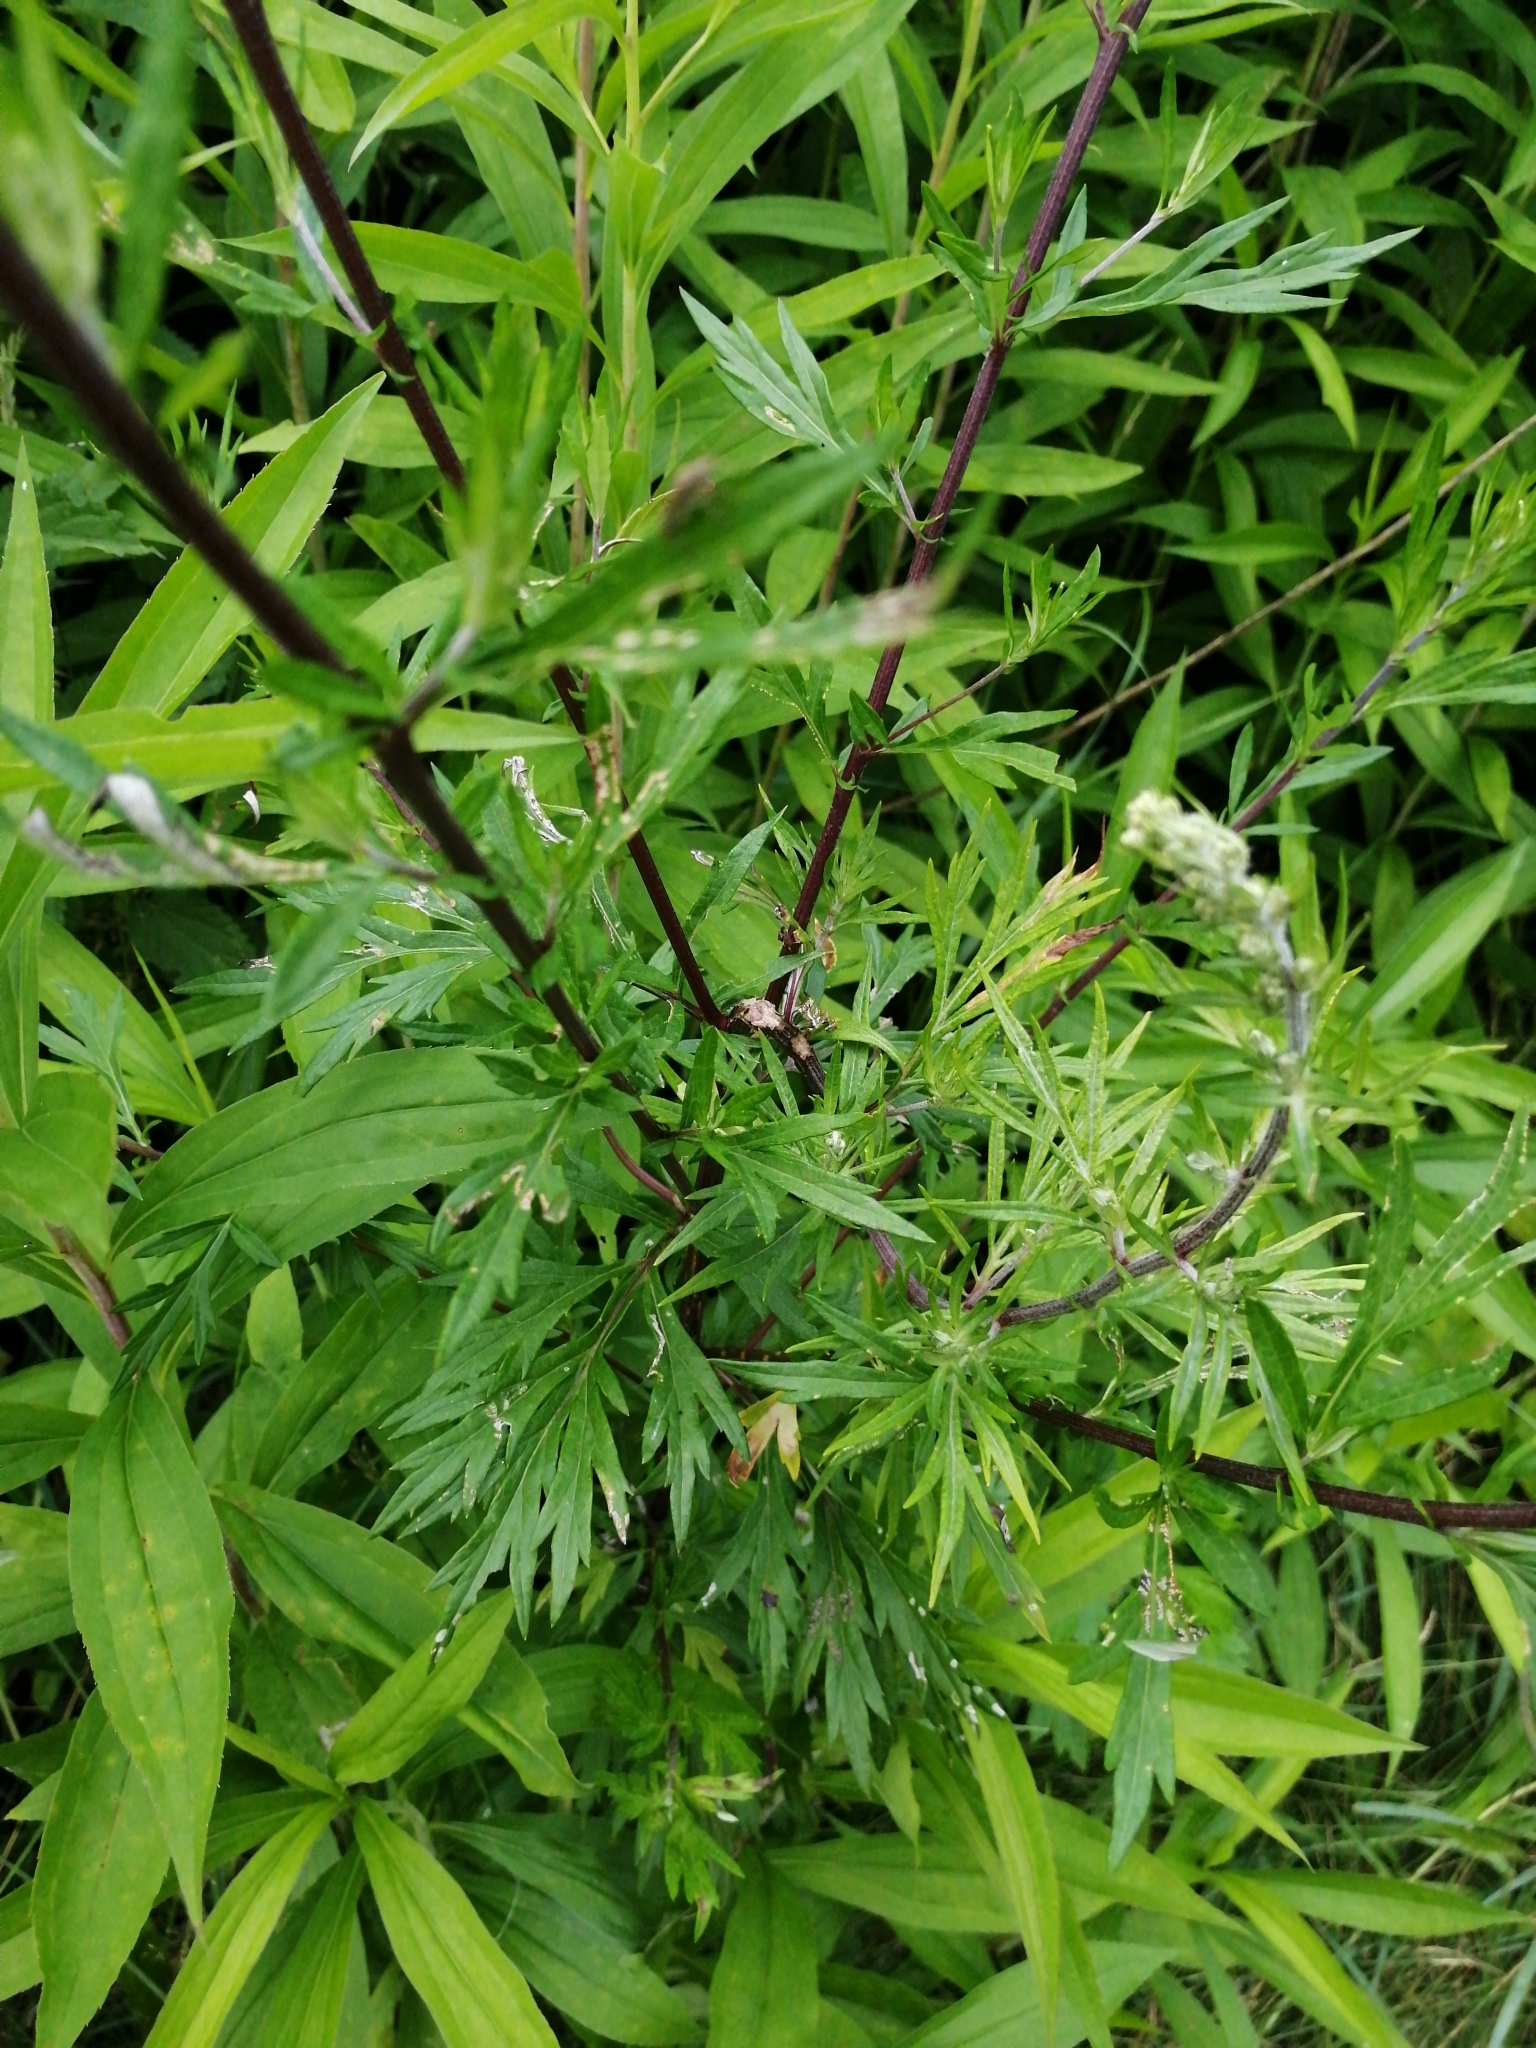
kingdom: Plantae
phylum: Tracheophyta
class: Magnoliopsida
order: Asterales
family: Asteraceae
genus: Artemisia
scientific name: Artemisia vulgaris
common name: Mugwort
